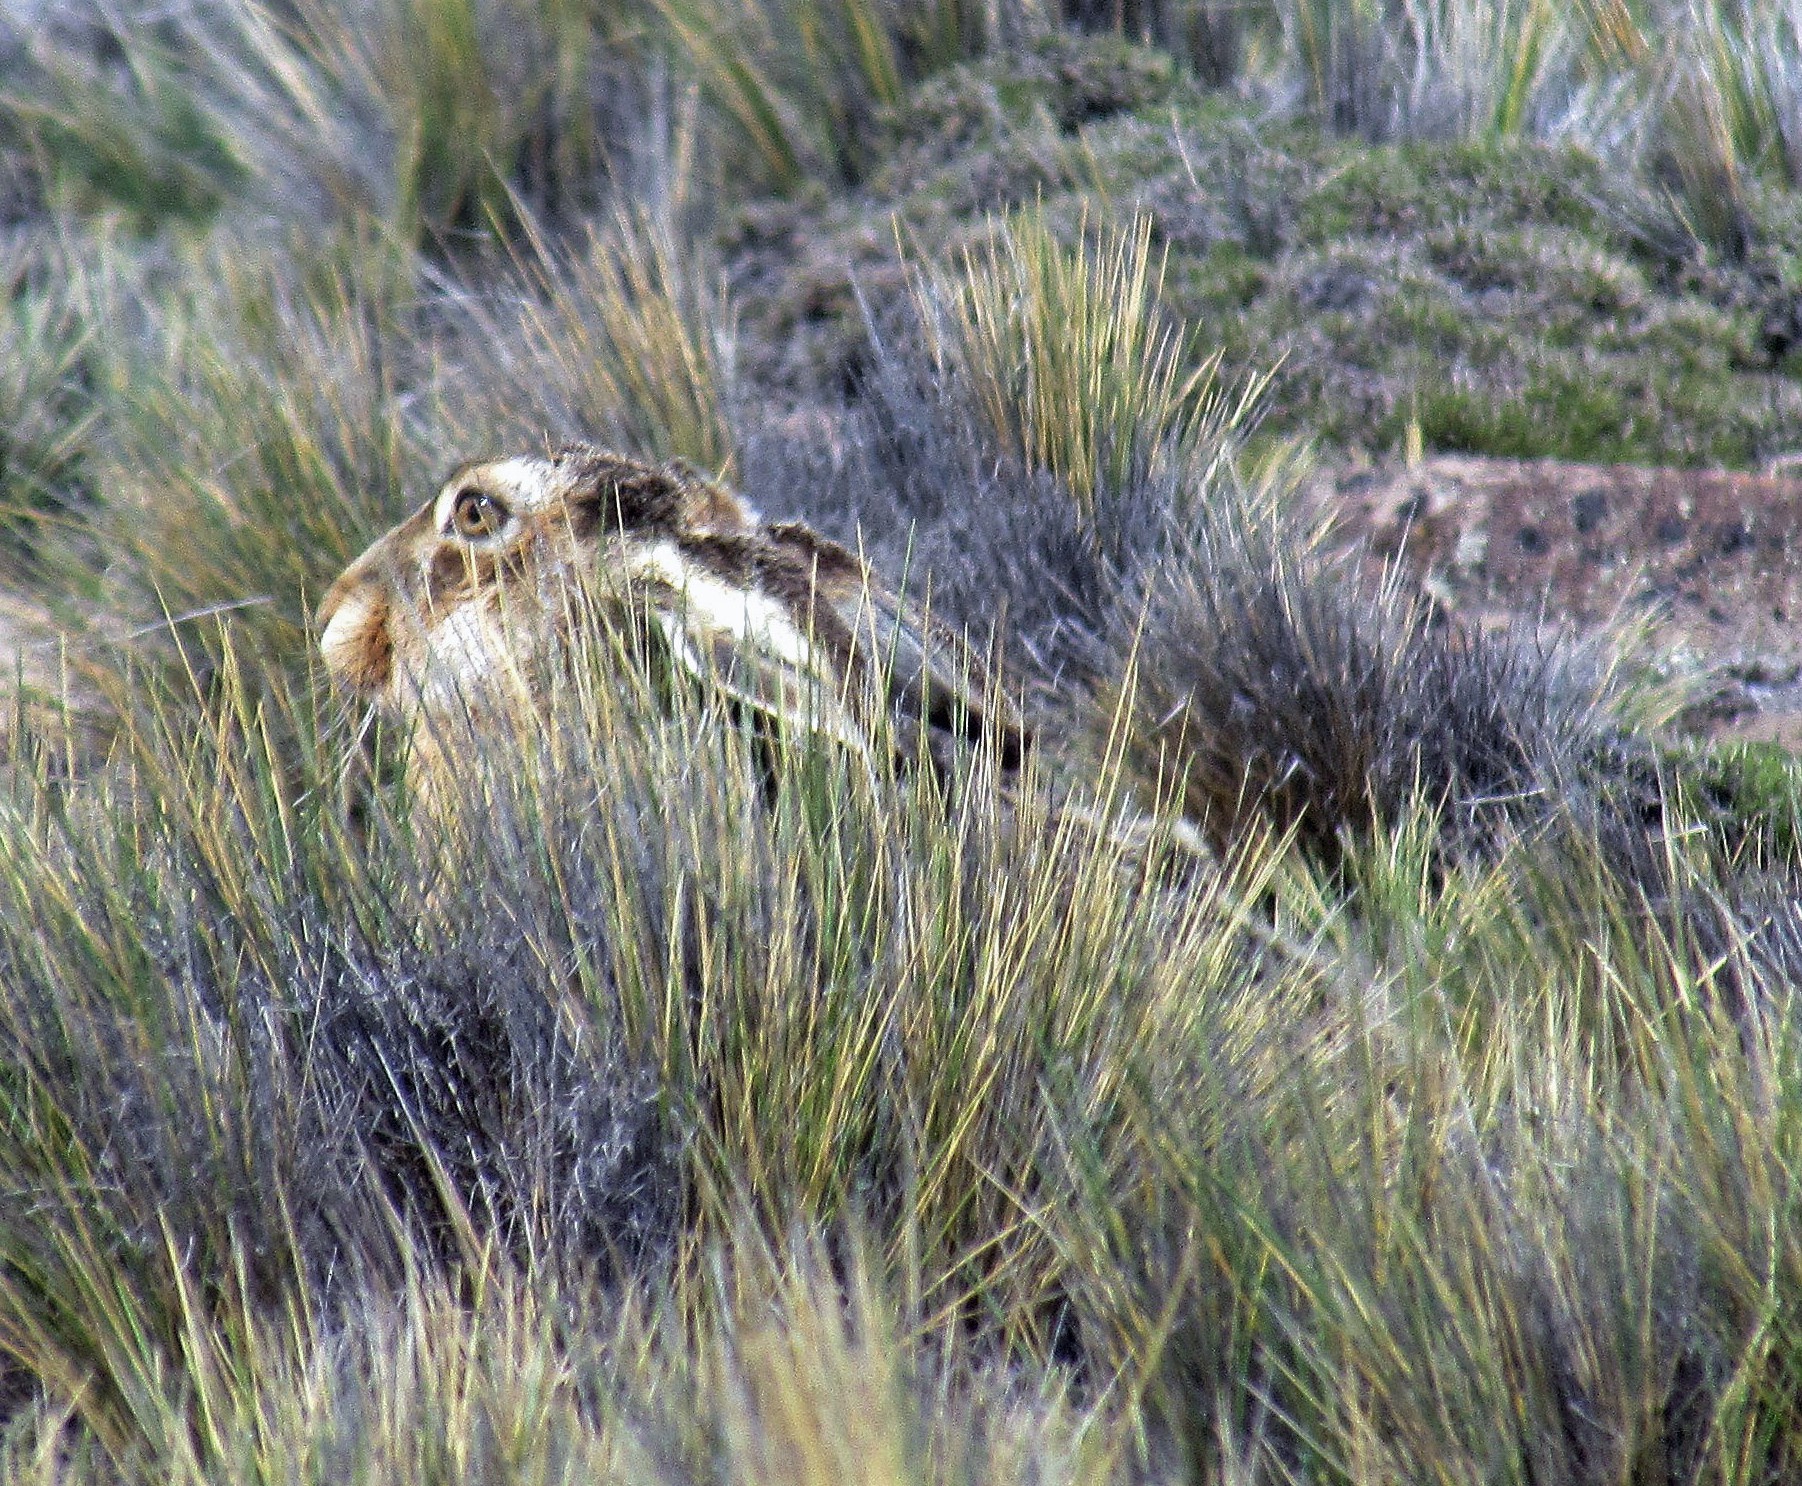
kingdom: Animalia
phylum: Chordata
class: Mammalia
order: Lagomorpha
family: Leporidae
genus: Lepus
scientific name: Lepus europaeus
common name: European hare
